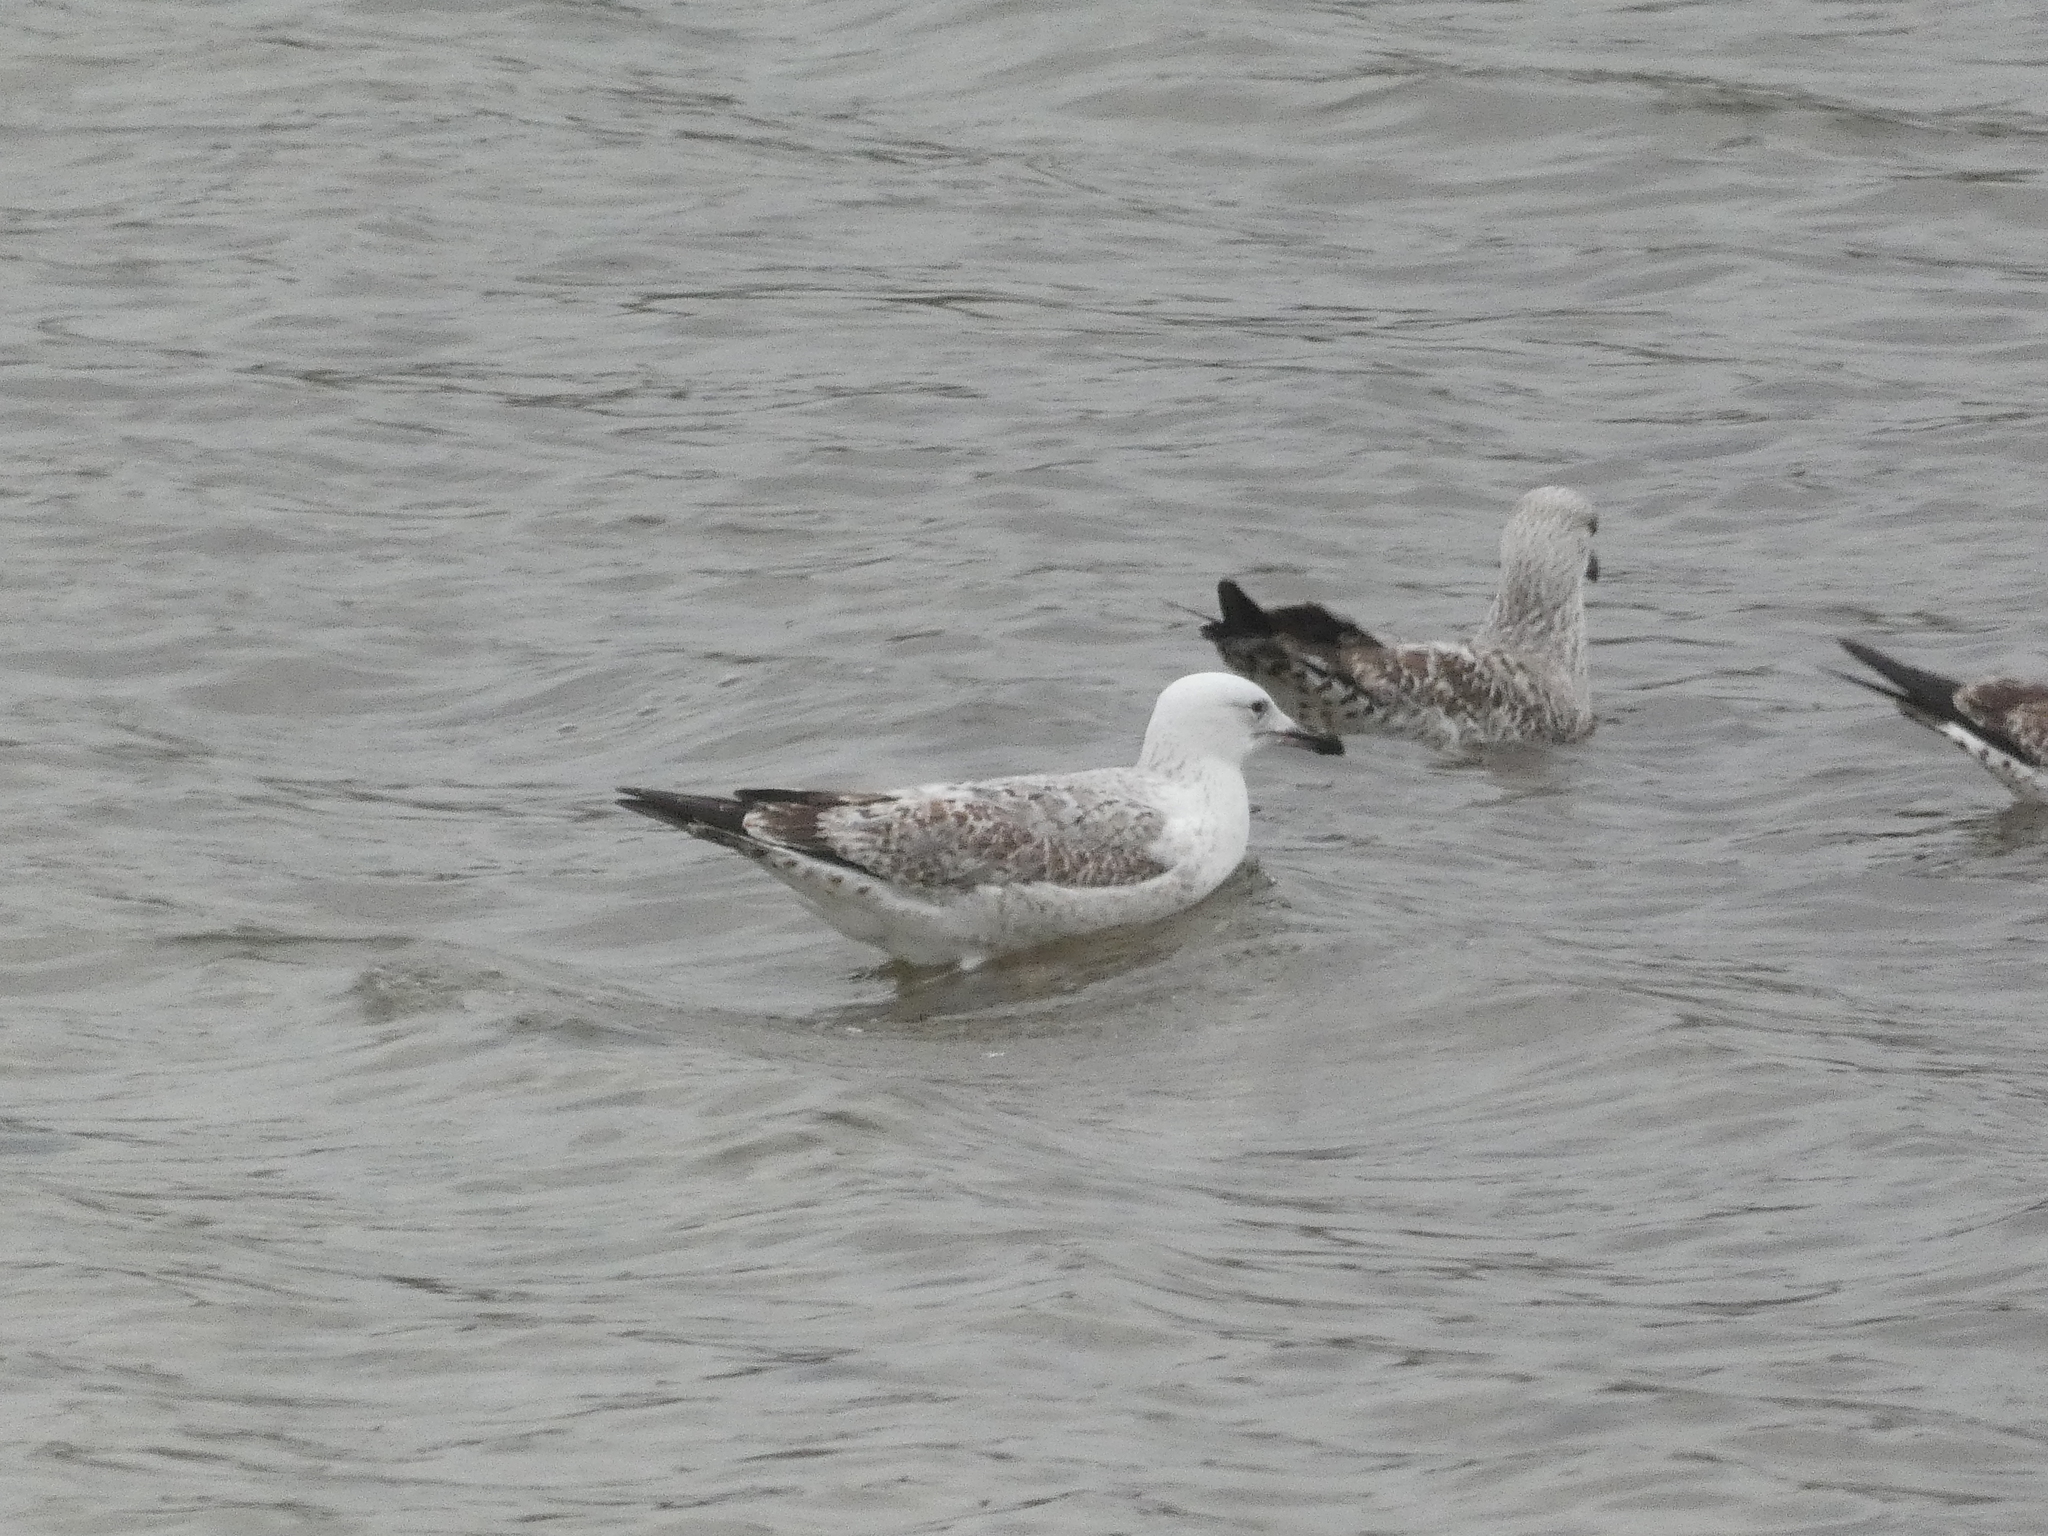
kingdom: Animalia
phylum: Chordata
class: Aves
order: Charadriiformes
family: Laridae
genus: Larus
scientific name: Larus cachinnans
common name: Caspian gull
